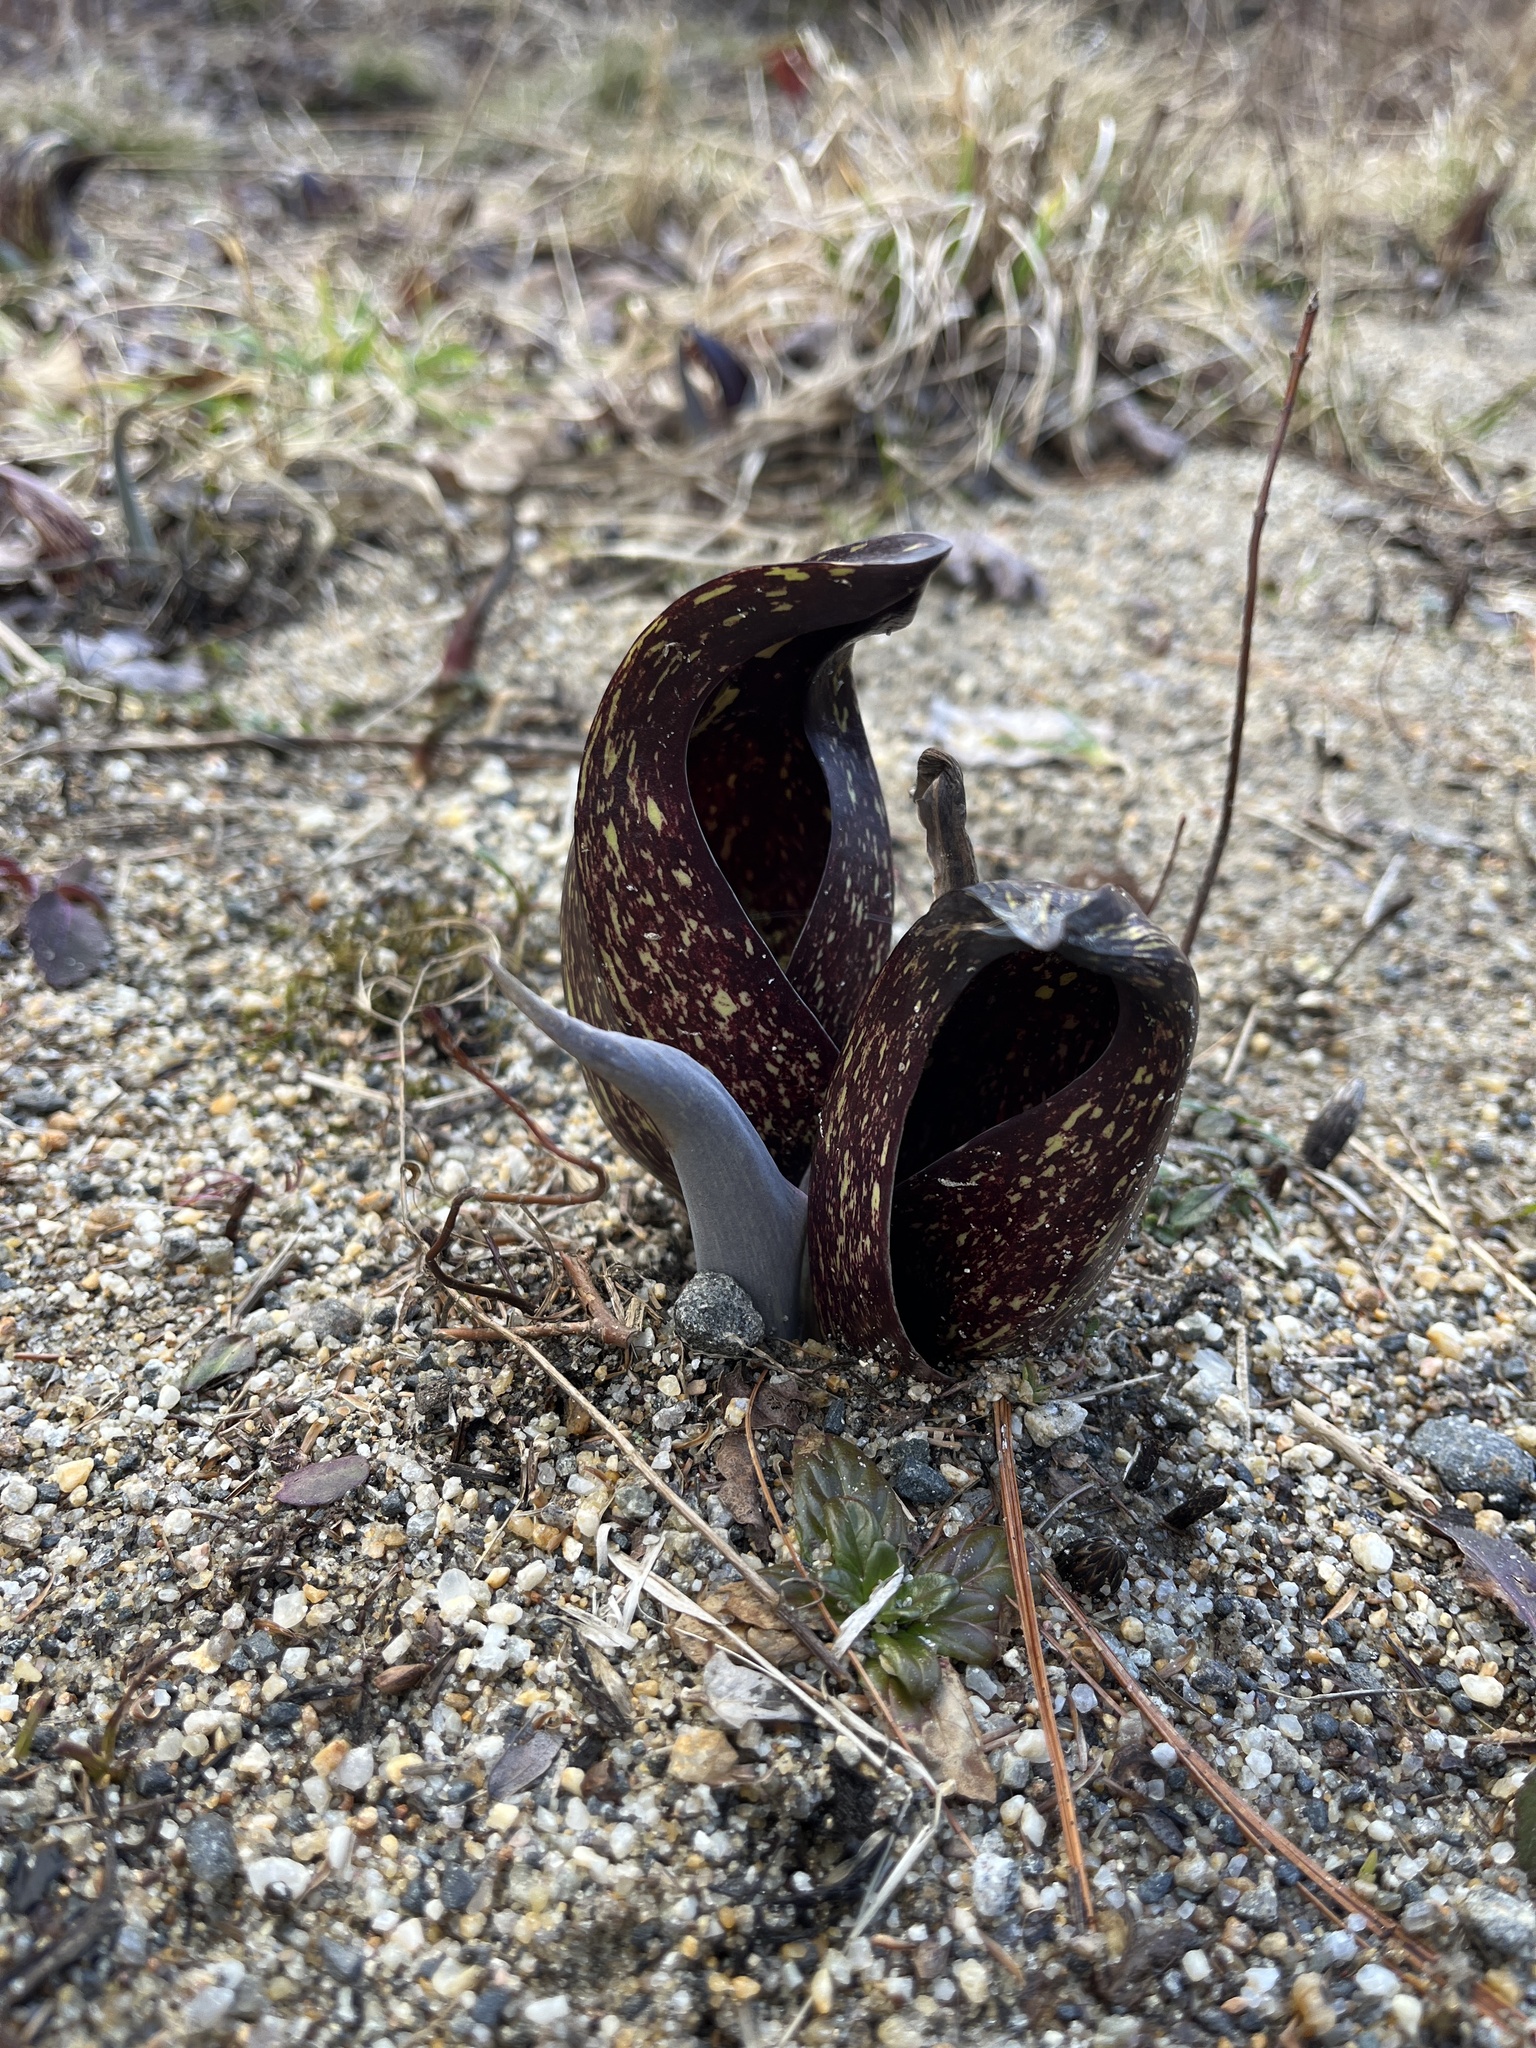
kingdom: Plantae
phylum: Tracheophyta
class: Liliopsida
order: Alismatales
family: Araceae
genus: Symplocarpus
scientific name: Symplocarpus foetidus
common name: Eastern skunk cabbage
